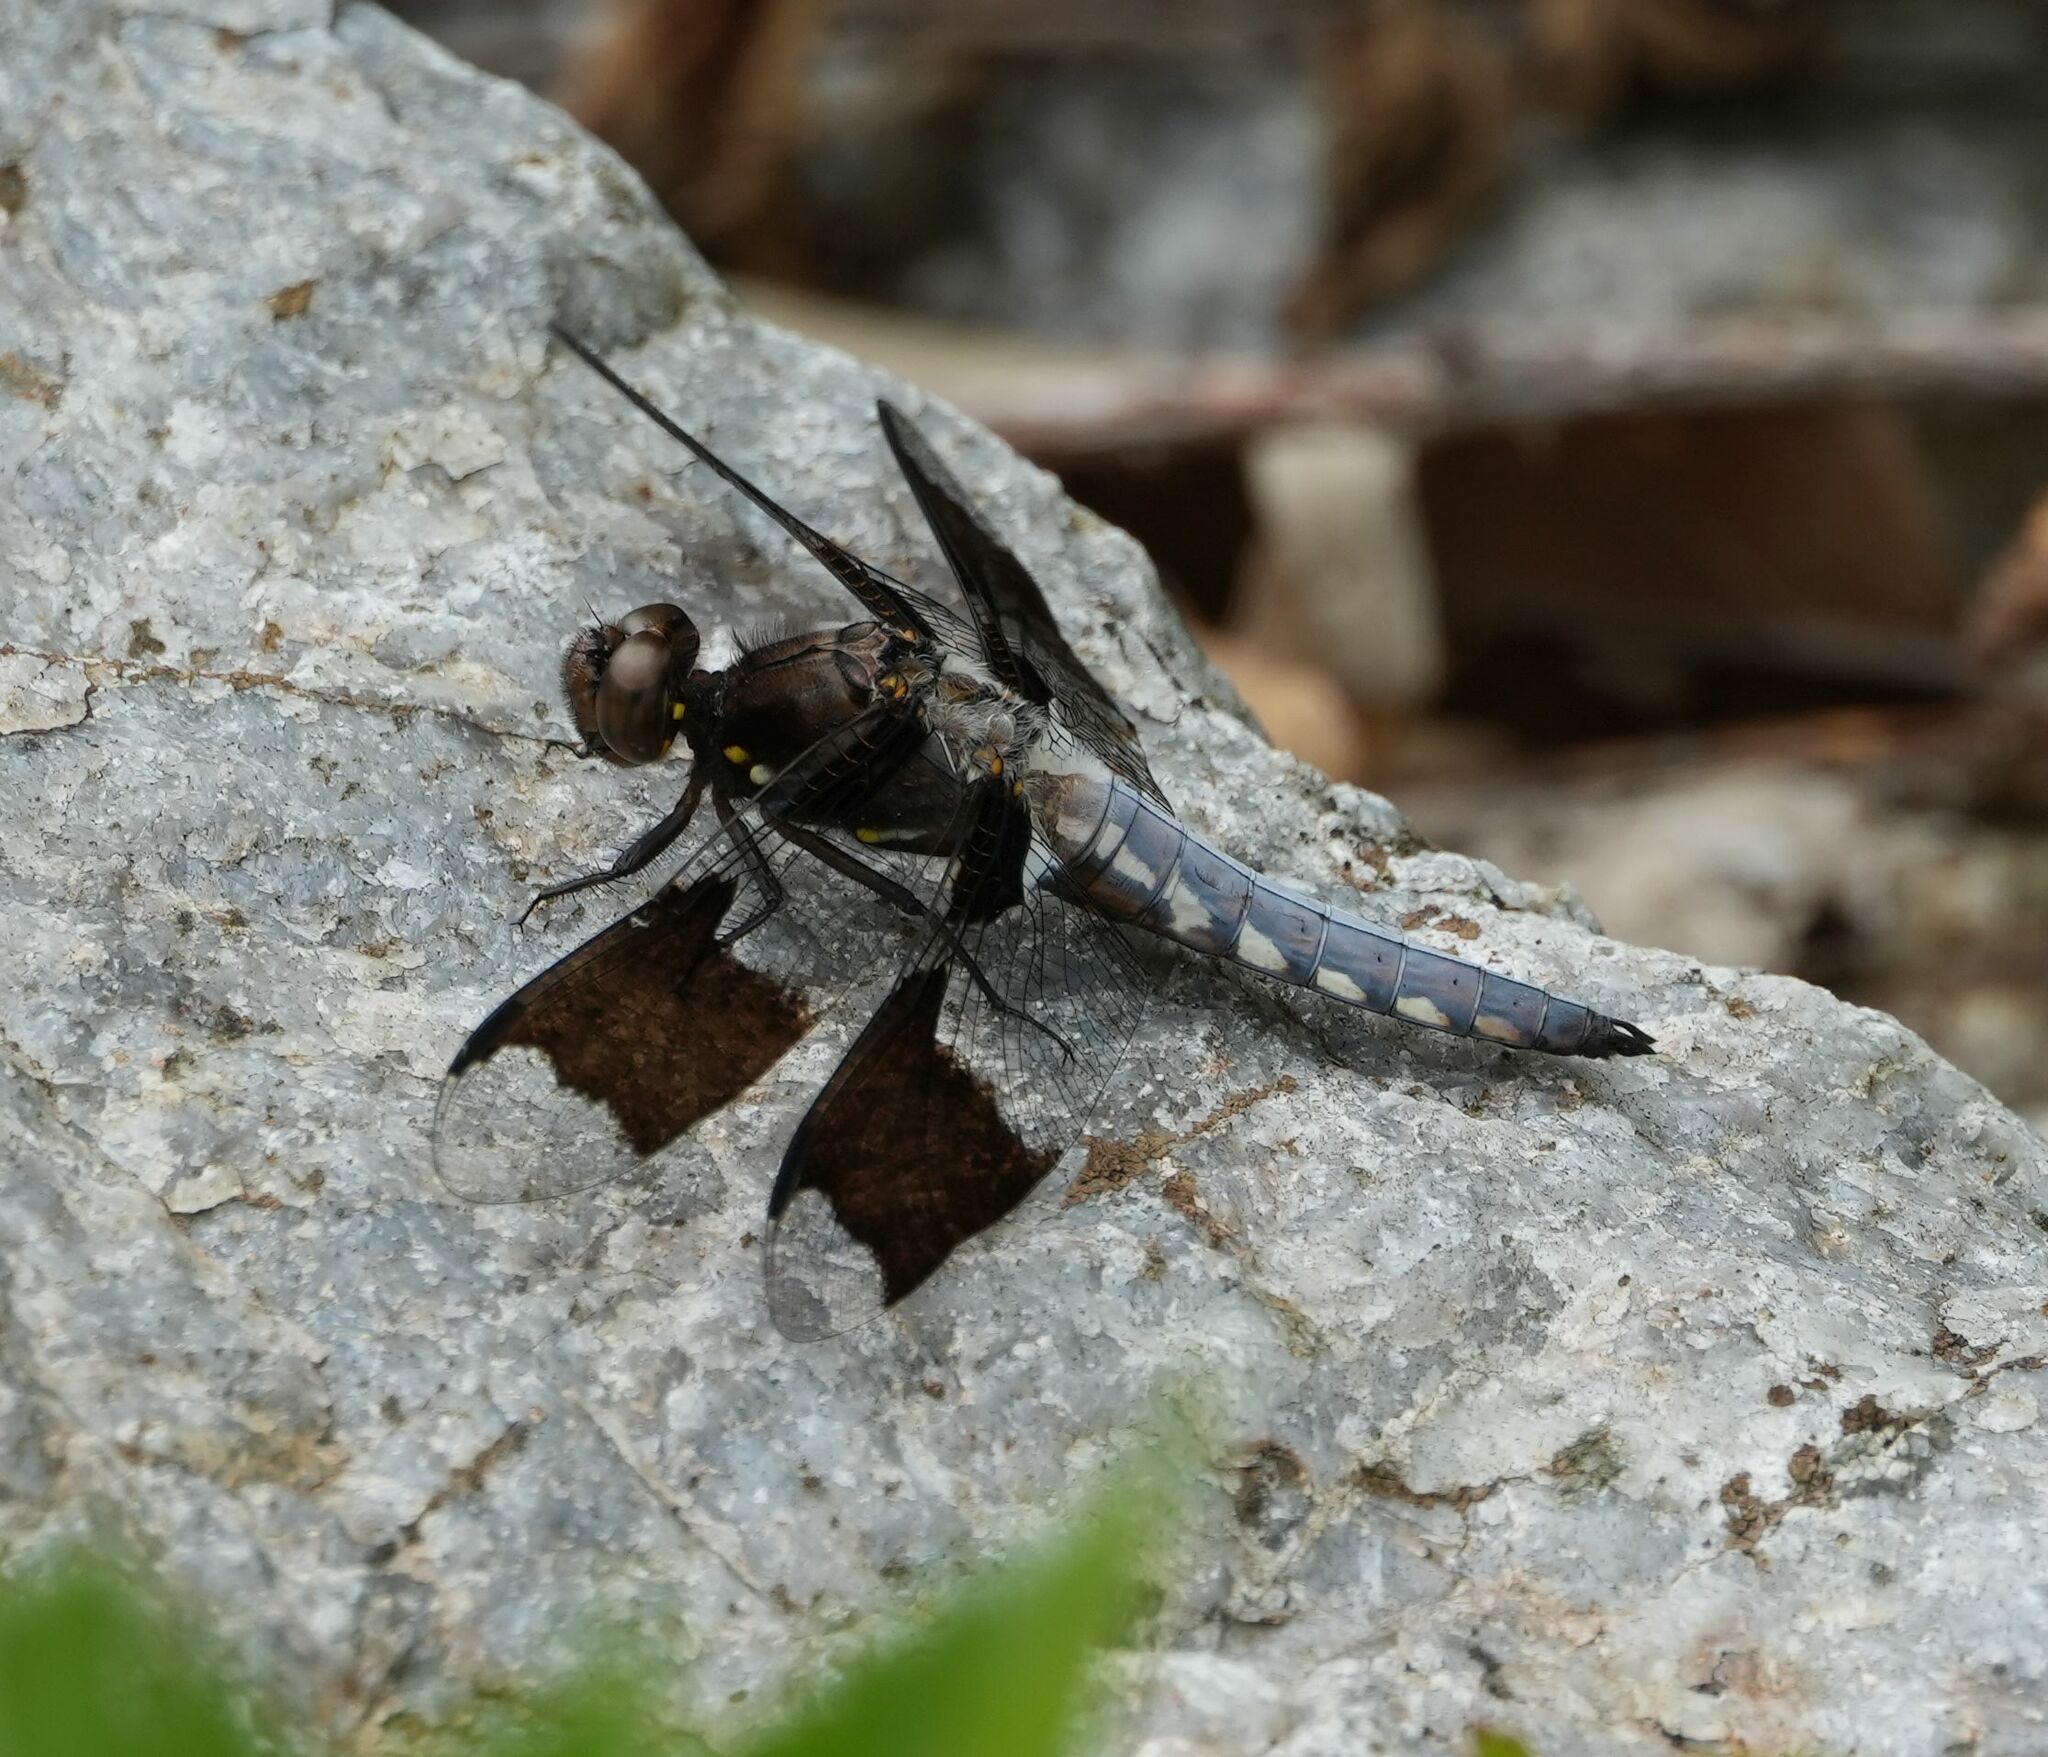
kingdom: Animalia
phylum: Arthropoda
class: Insecta
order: Odonata
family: Libellulidae
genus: Plathemis
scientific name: Plathemis lydia
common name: Common whitetail
